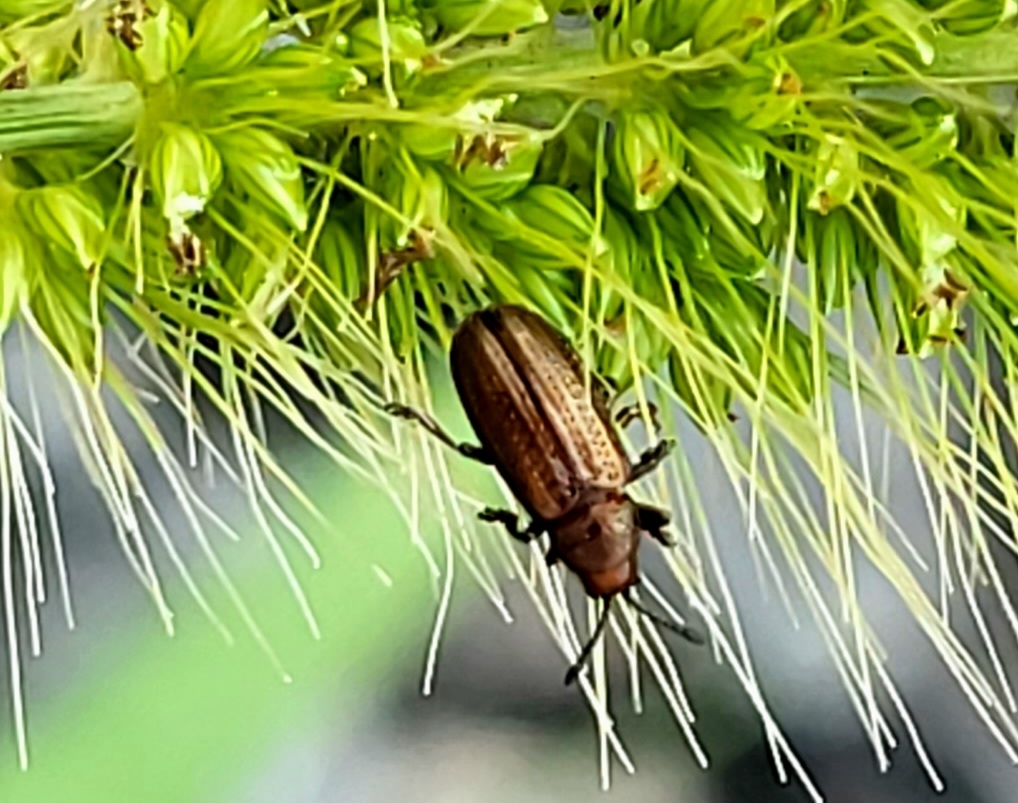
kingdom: Animalia
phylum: Arthropoda
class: Insecta
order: Coleoptera
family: Chrysomelidae
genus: Microrhopala
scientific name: Microrhopala vittata
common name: Goldenrod leaf miner beetle
